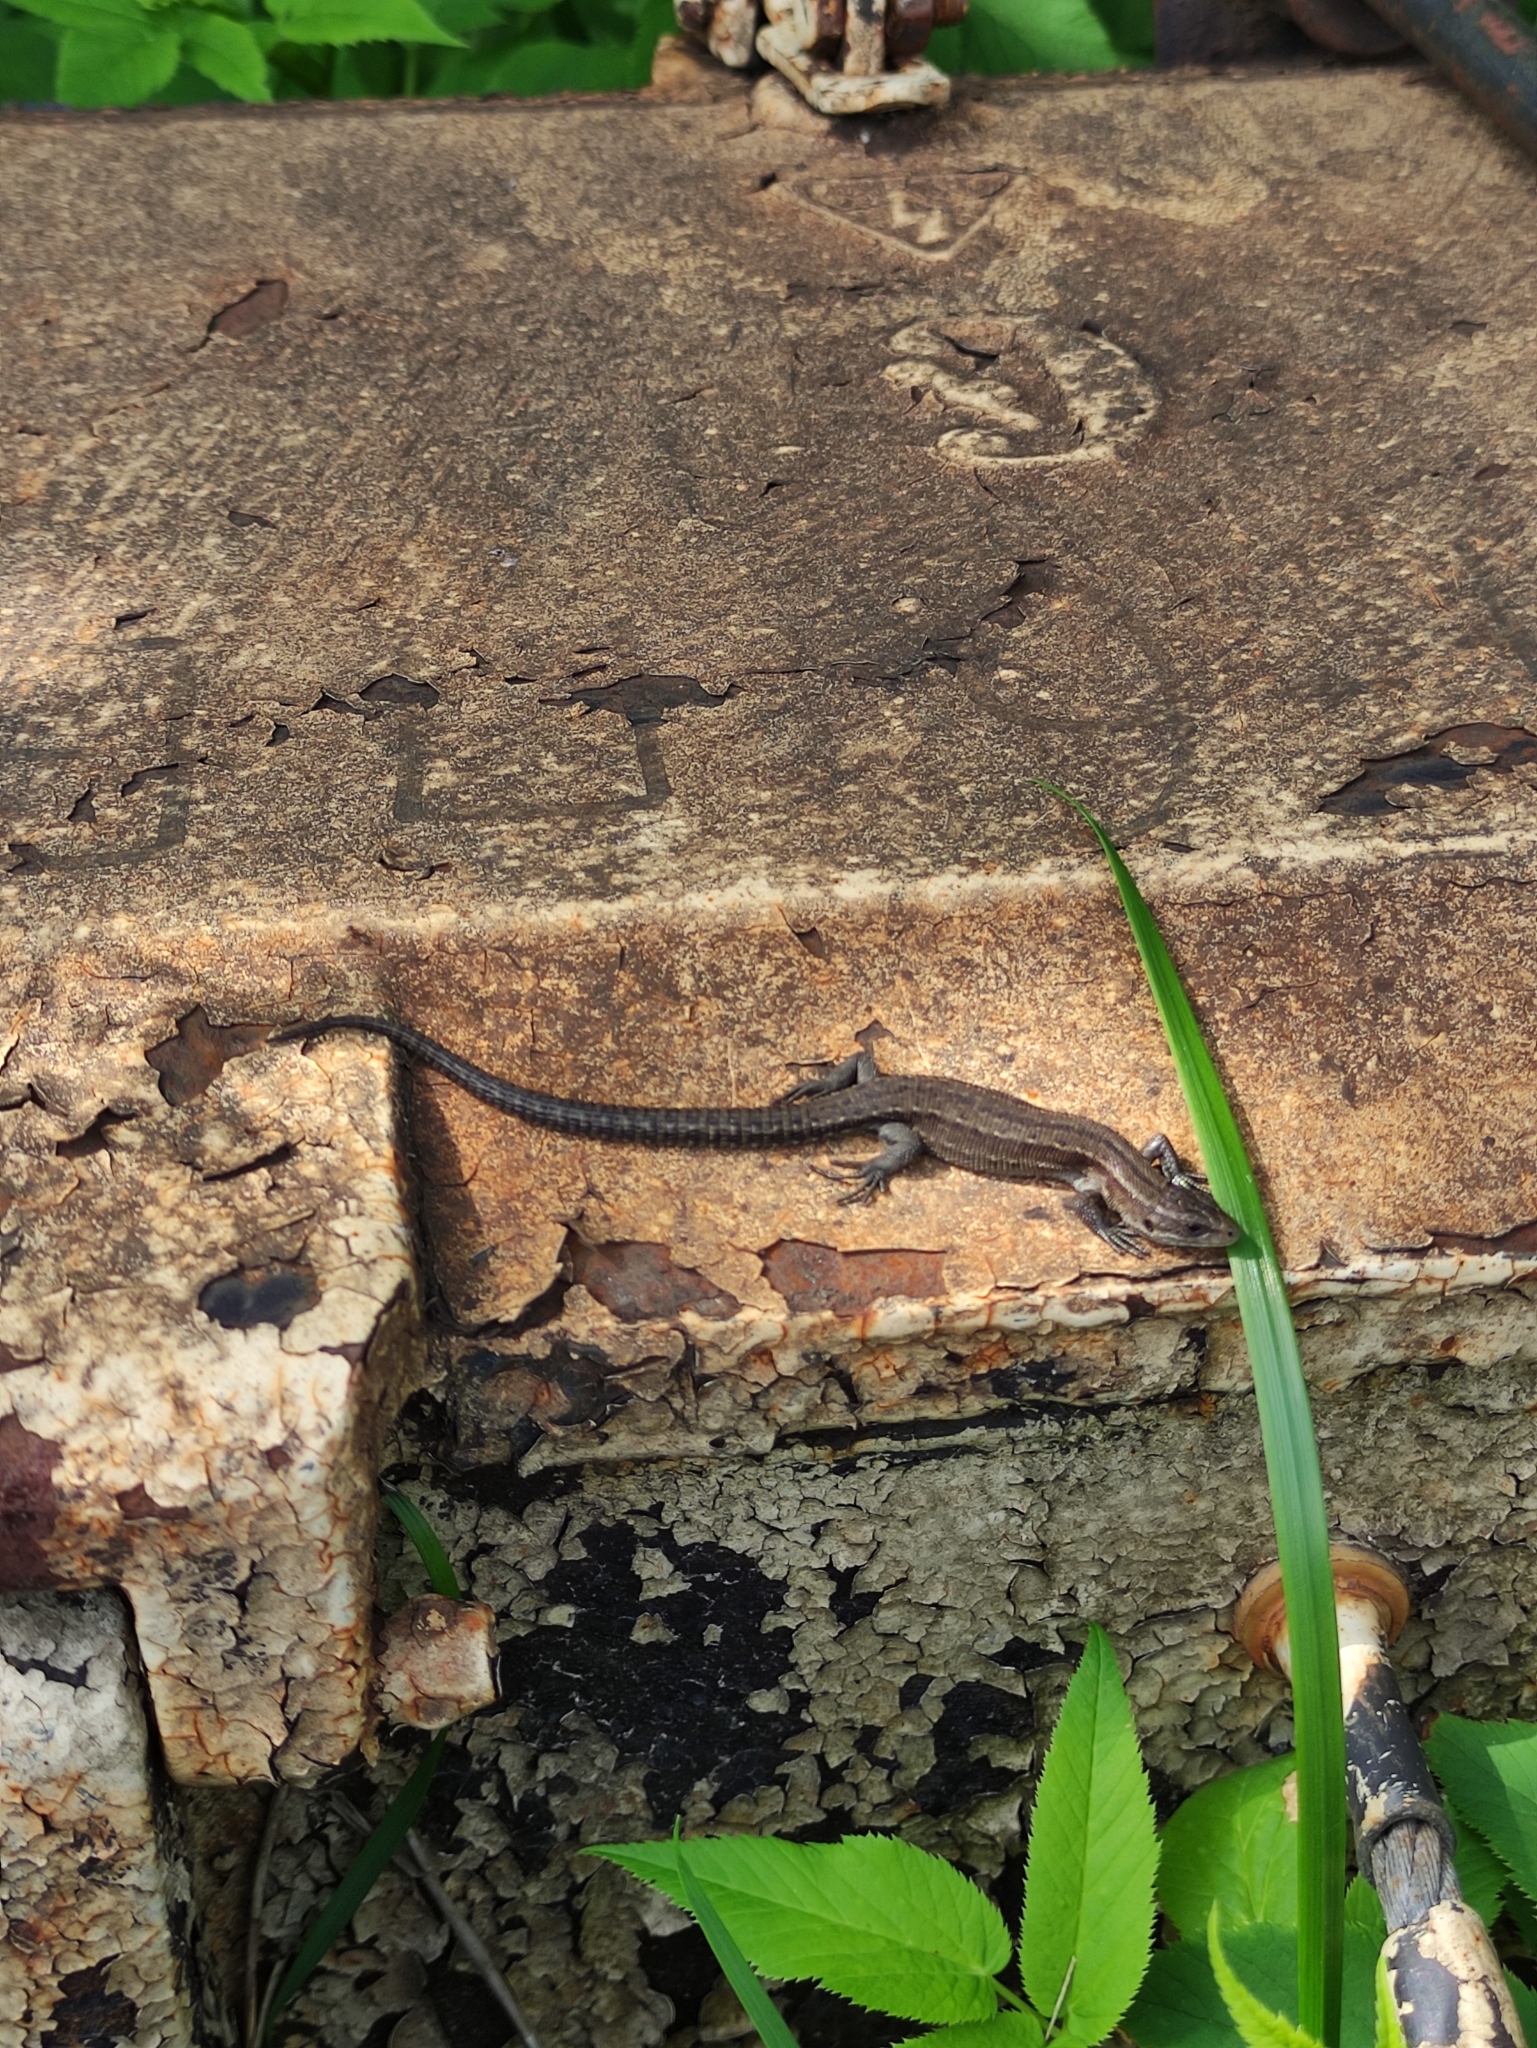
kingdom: Animalia
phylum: Chordata
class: Squamata
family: Lacertidae
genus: Zootoca
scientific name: Zootoca vivipara
